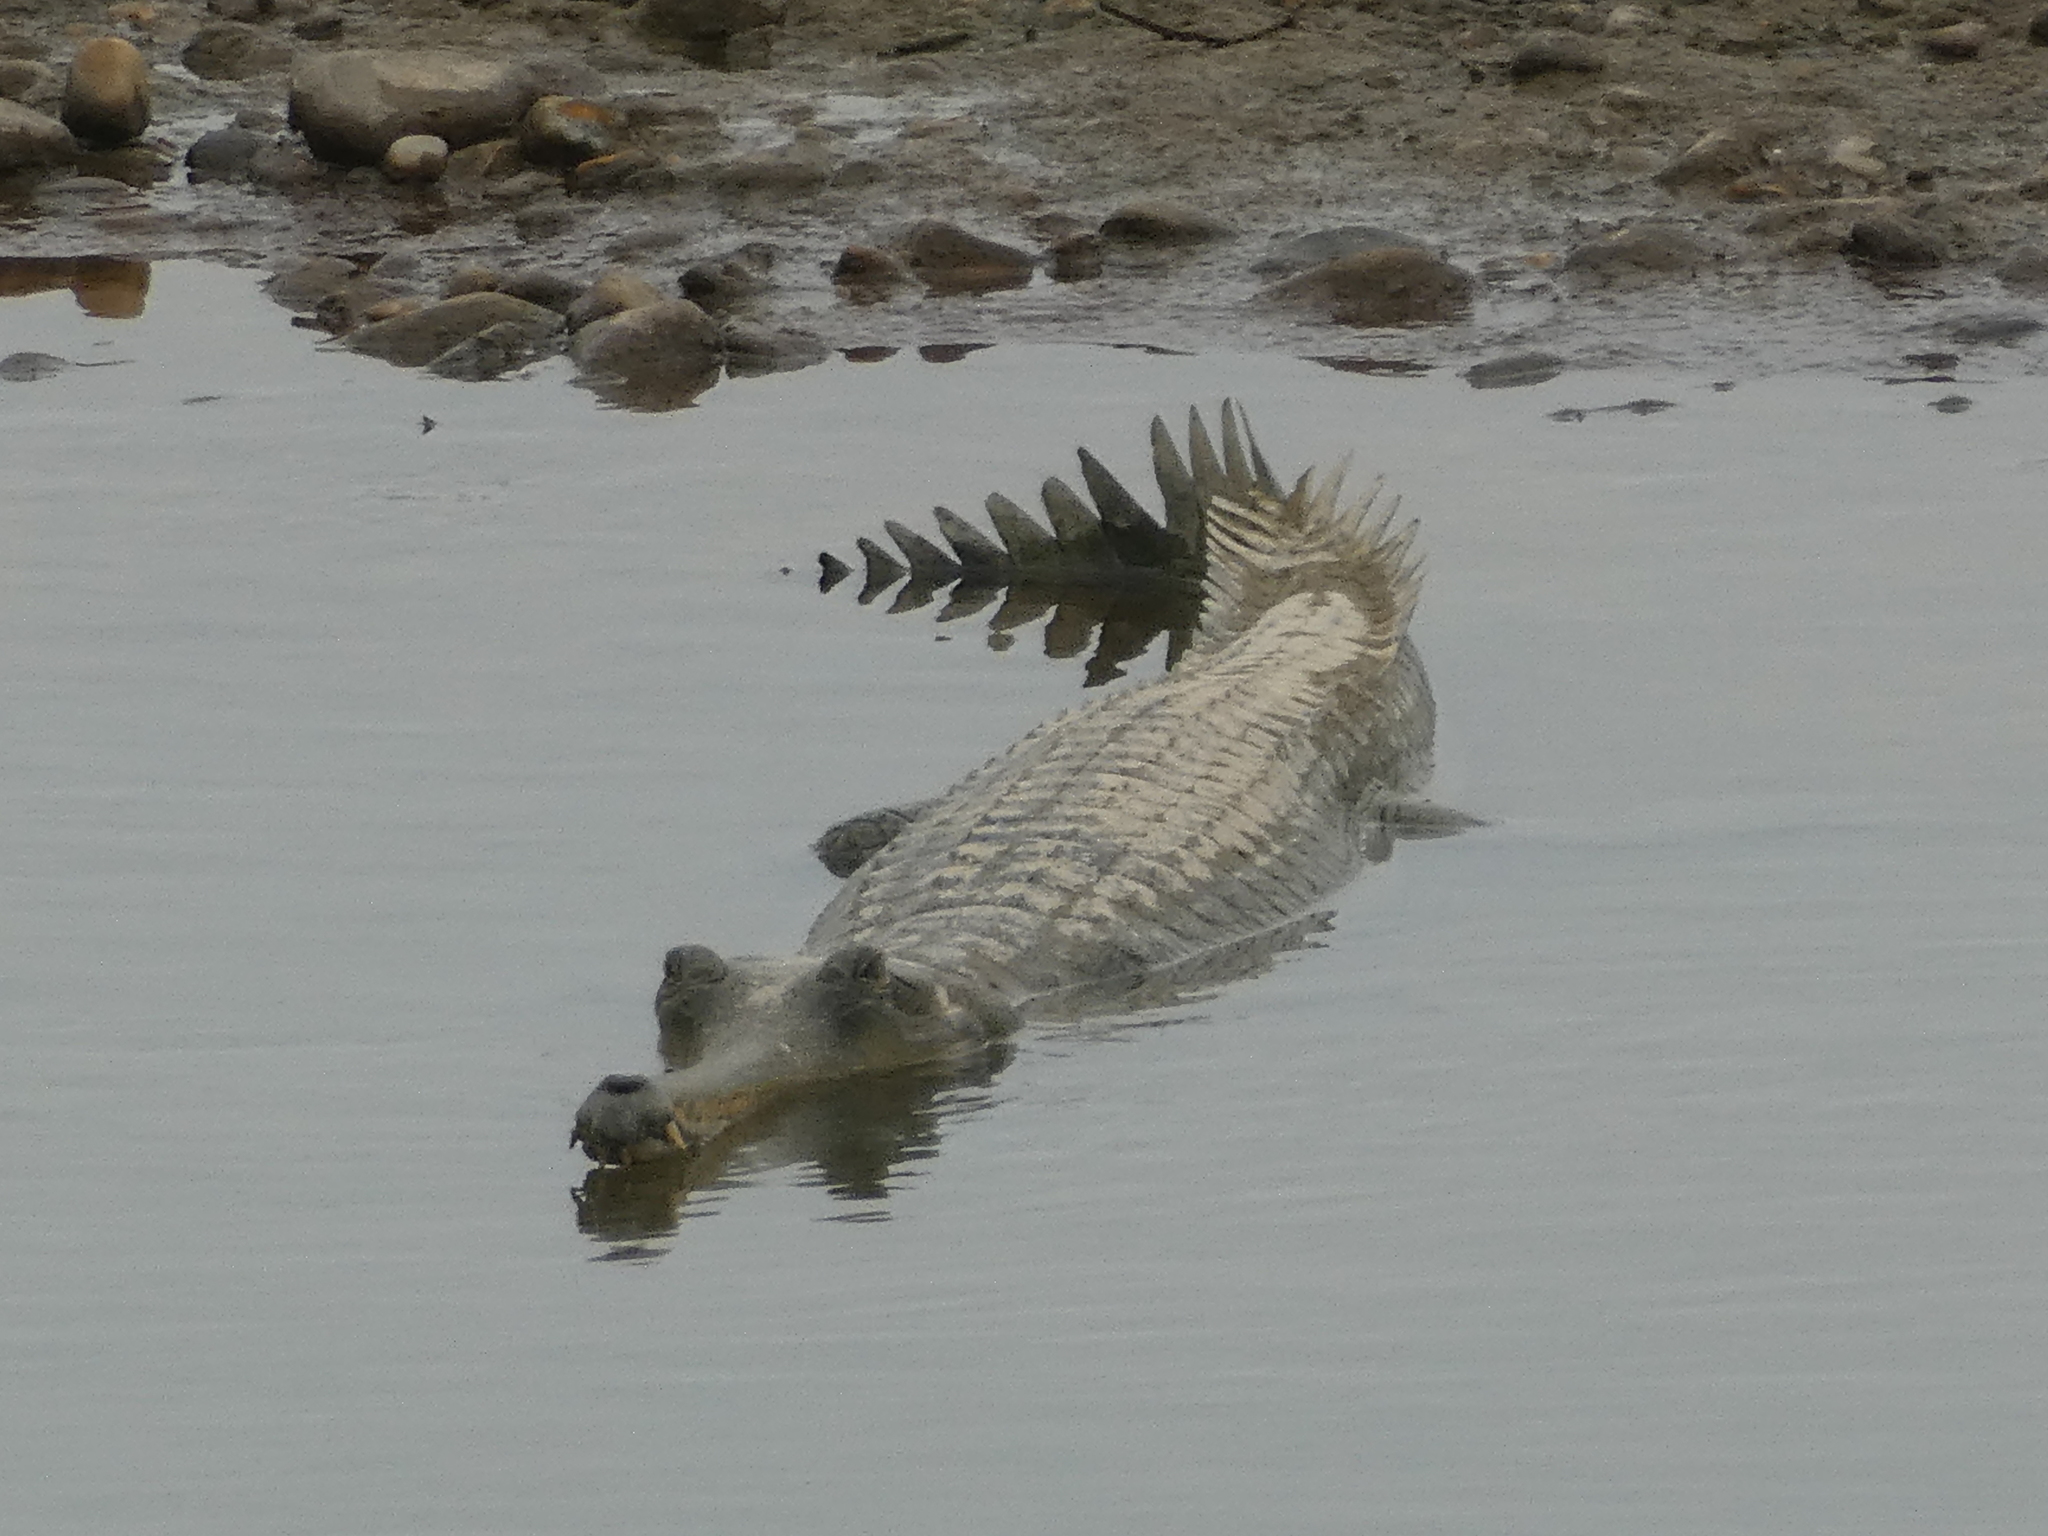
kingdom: Animalia
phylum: Chordata
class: Crocodylia
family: Gavialidae
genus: Gavialis
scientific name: Gavialis gangeticus
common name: Gharial
